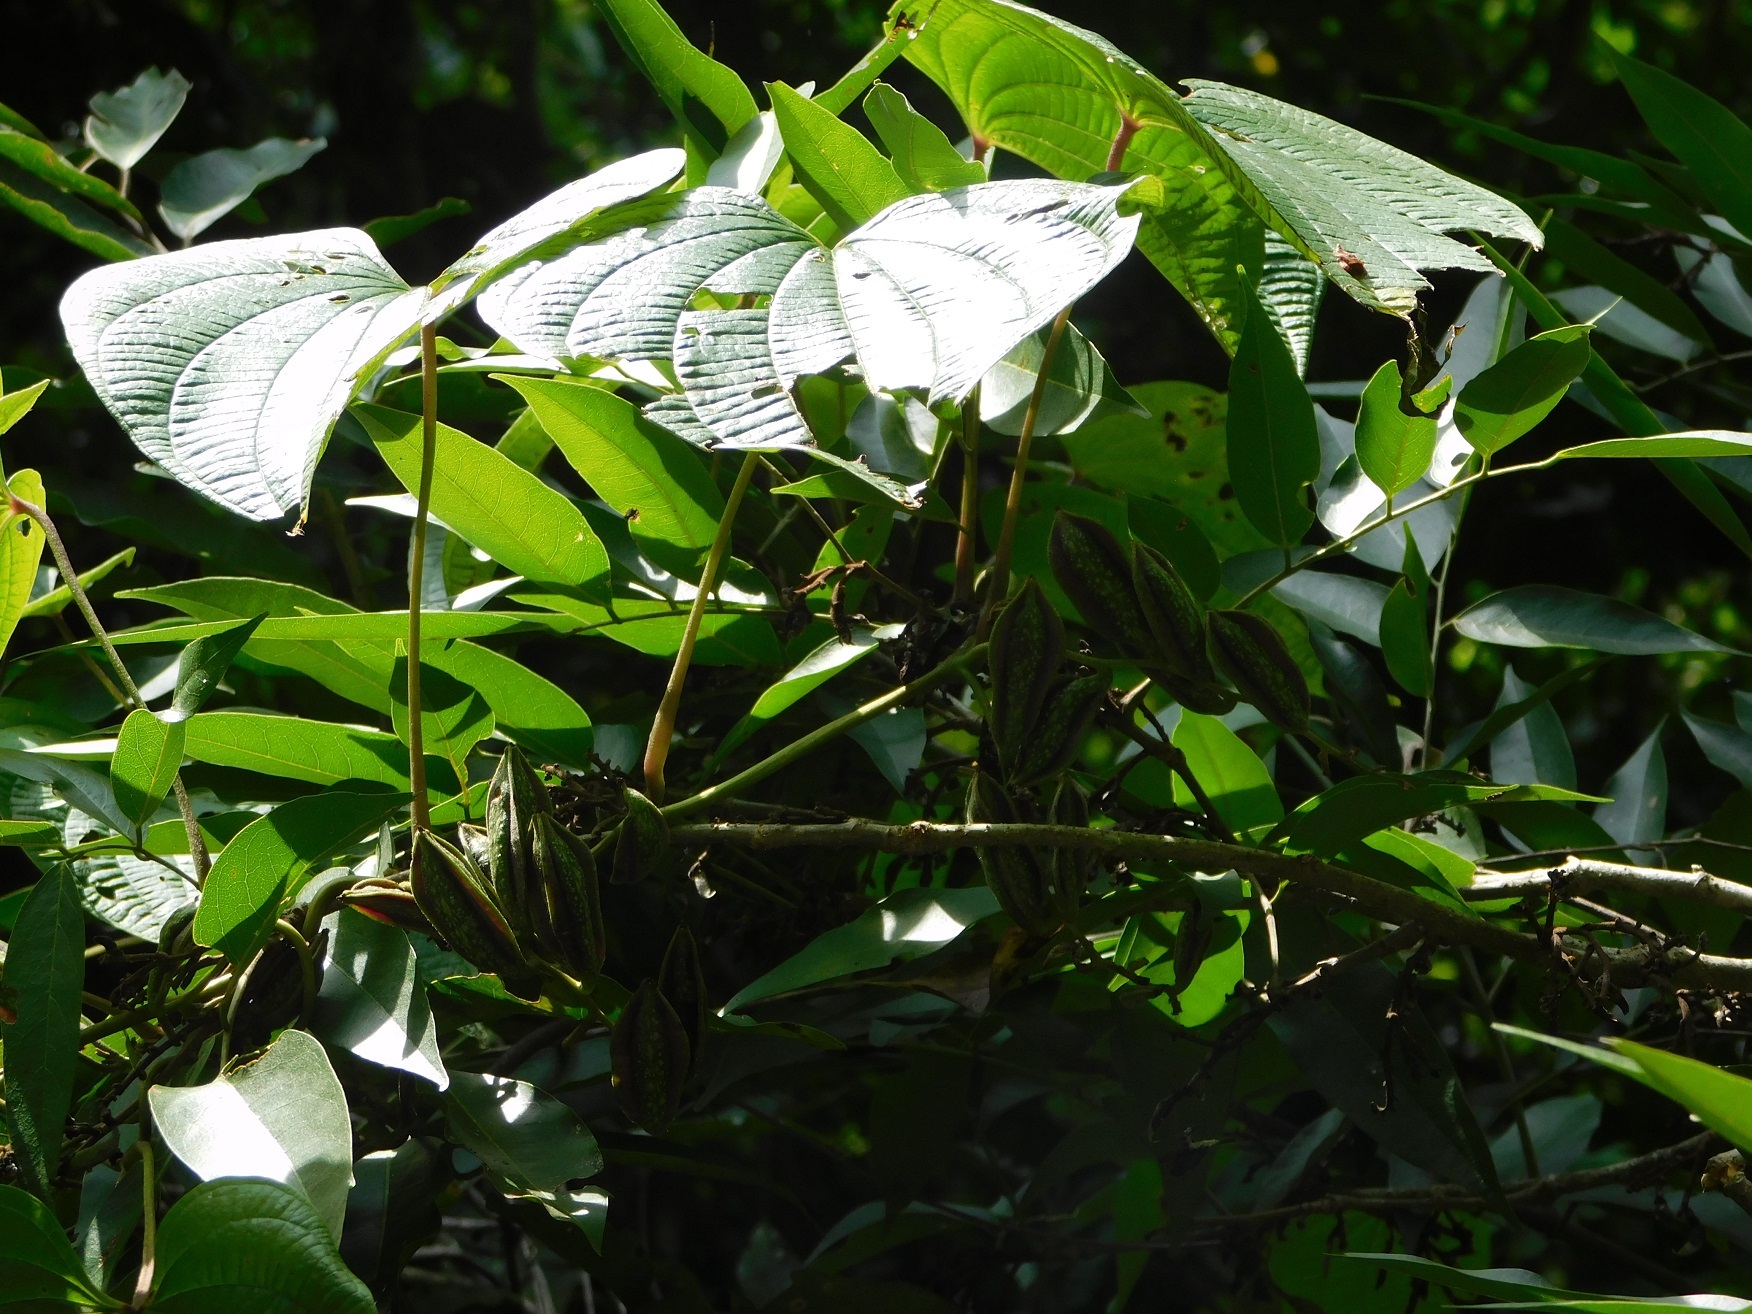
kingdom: Plantae
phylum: Tracheophyta
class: Liliopsida
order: Dioscoreales
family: Dioscoreaceae
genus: Dioscorea
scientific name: Dioscorea spiculiflora
